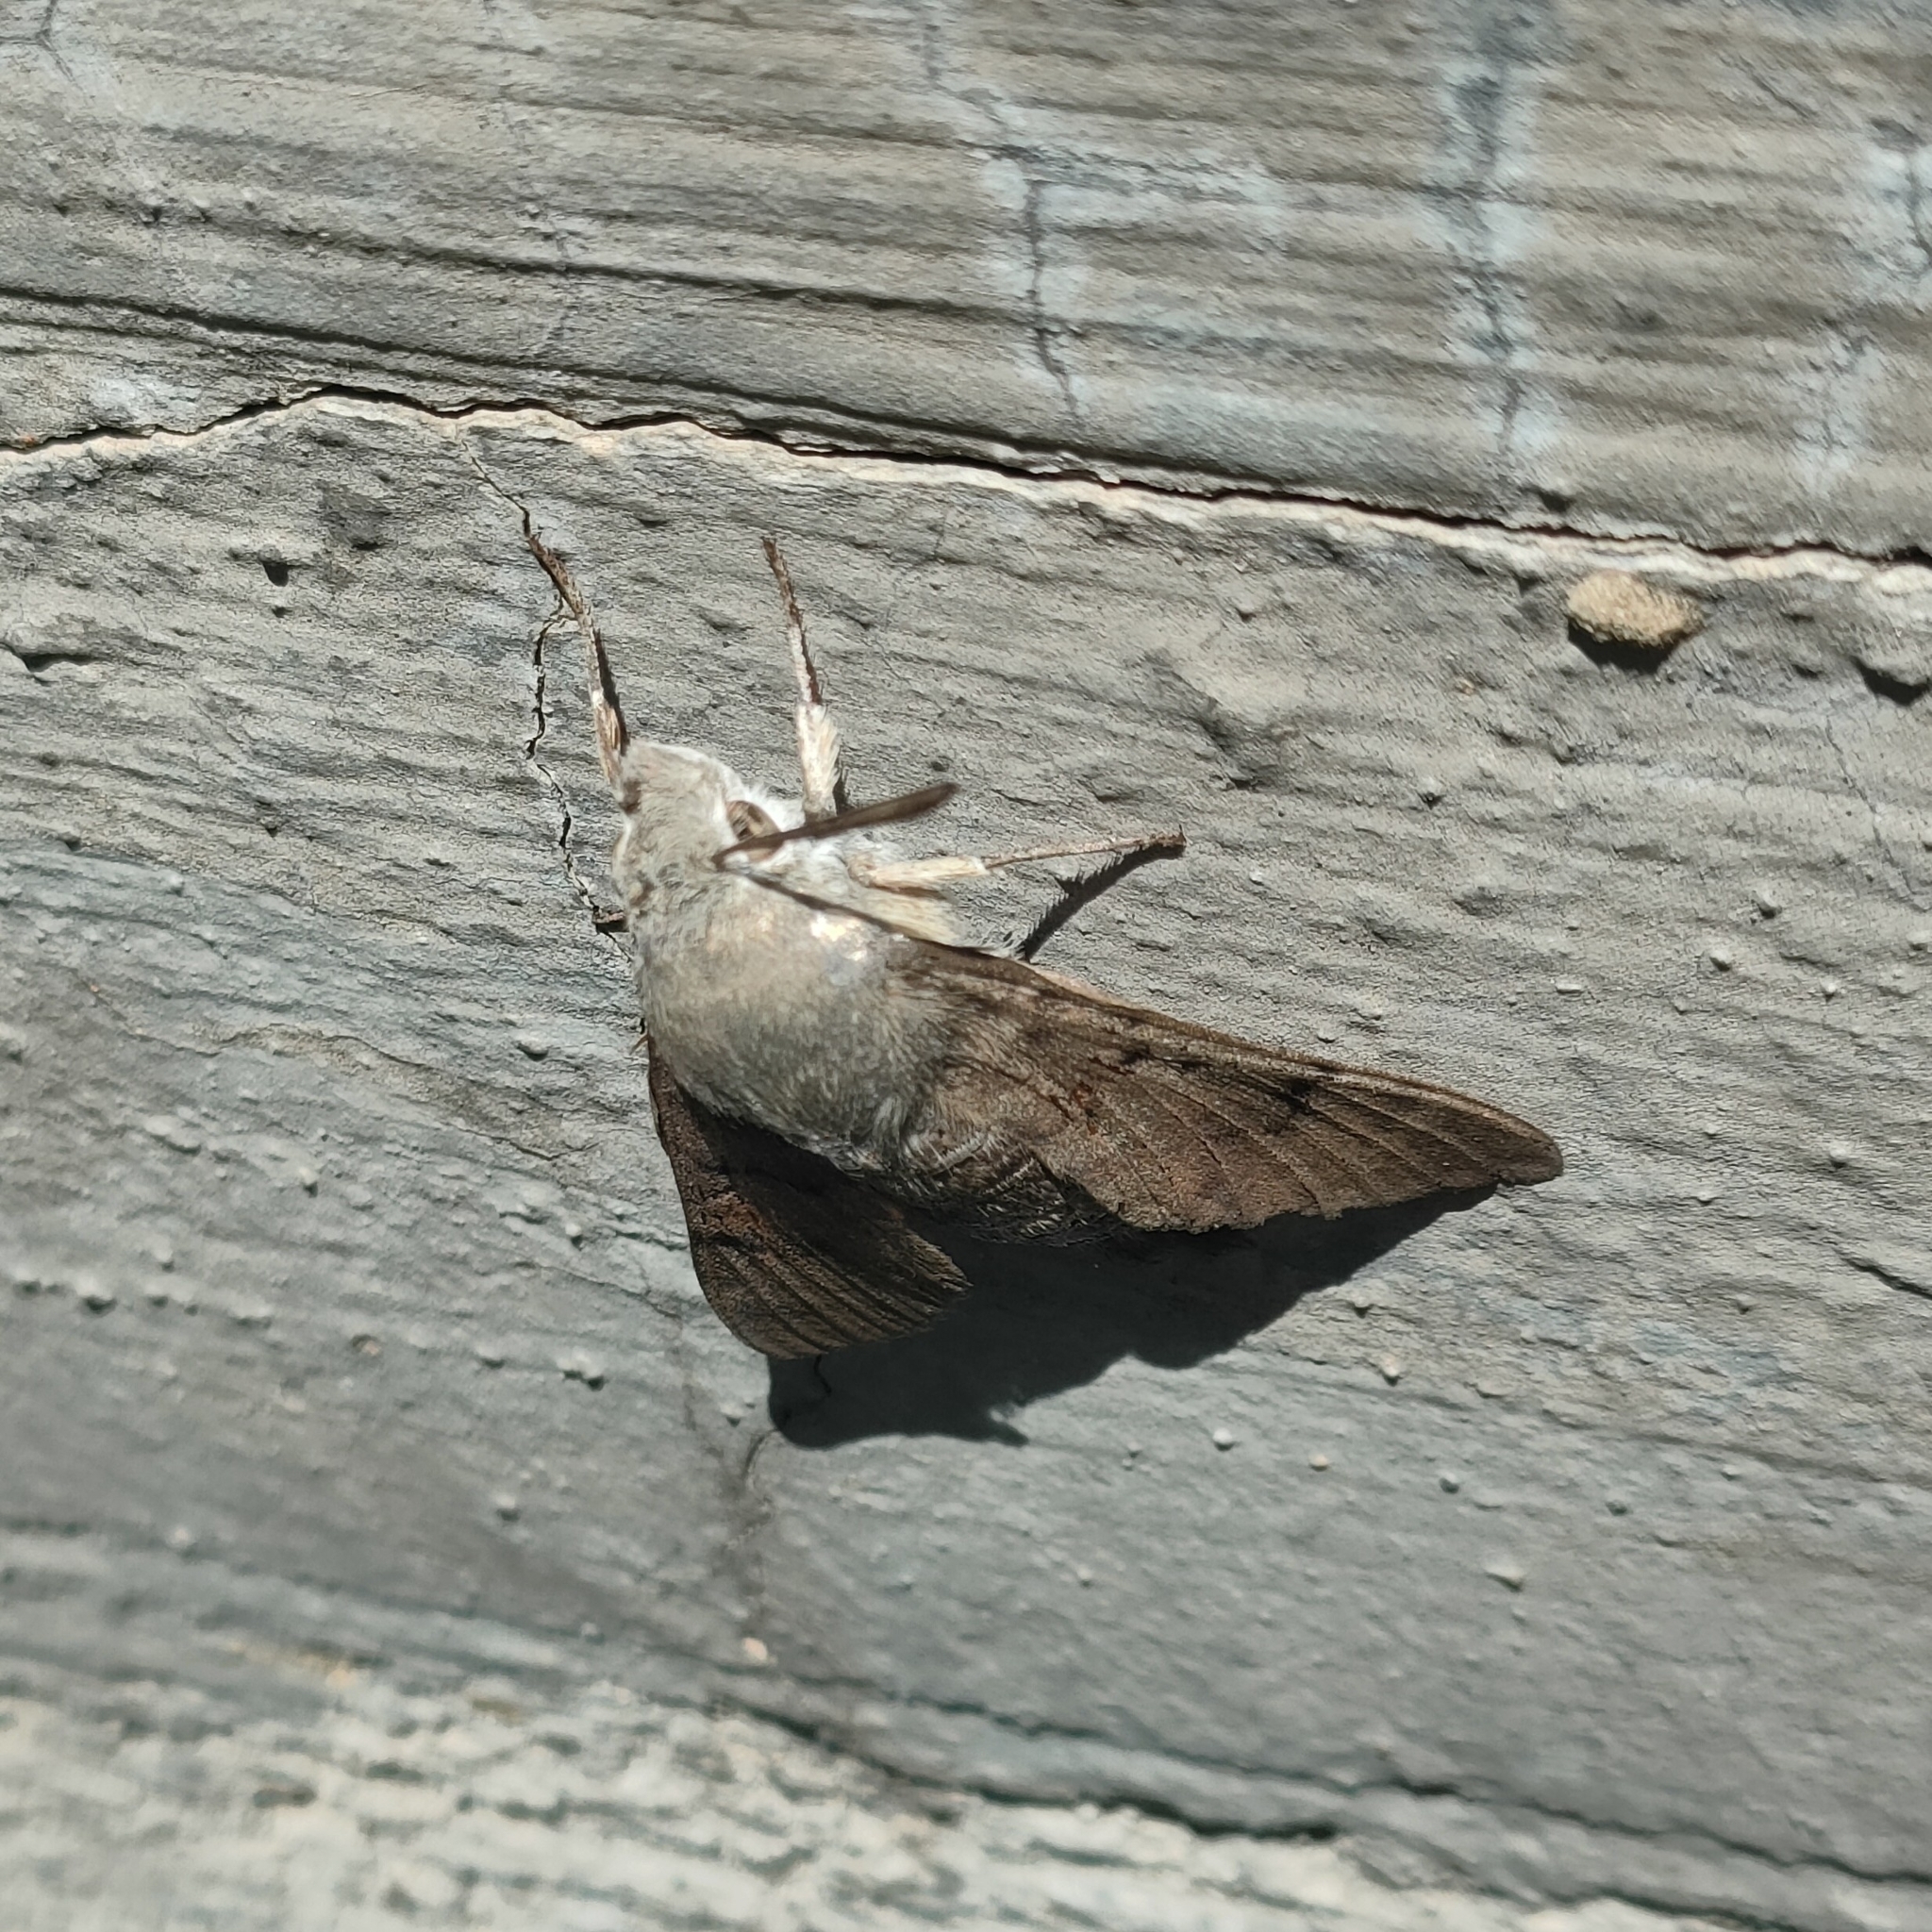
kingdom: Animalia
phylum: Arthropoda
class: Insecta
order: Lepidoptera
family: Sphingidae
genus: Macroglossum
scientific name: Macroglossum stellatarum
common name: Humming-bird hawk-moth
